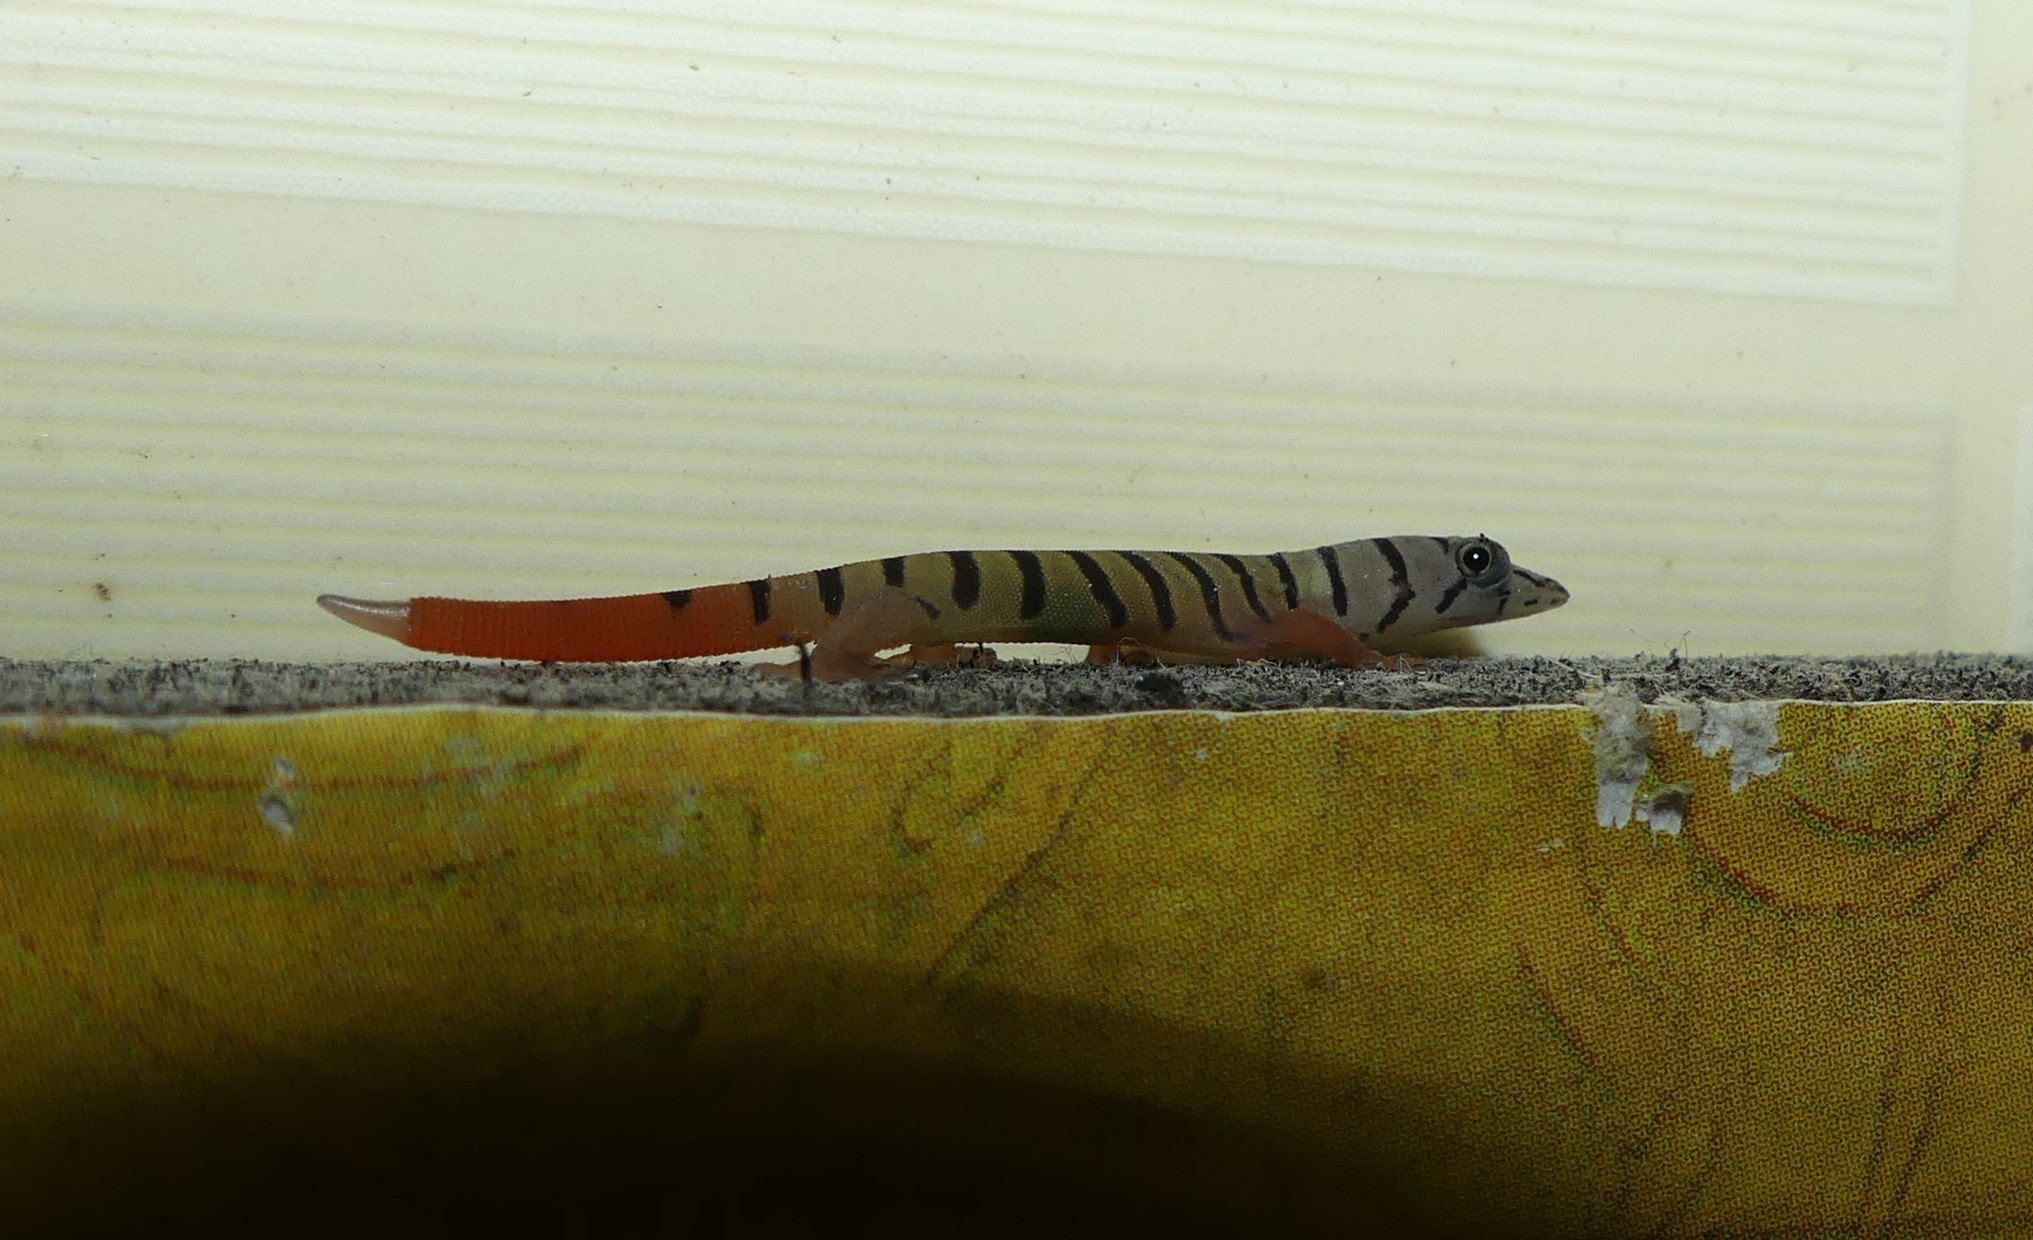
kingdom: Animalia
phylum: Chordata
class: Squamata
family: Sphaerodactylidae
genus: Sphaerodactylus
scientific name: Sphaerodactylus elegans
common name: Ashy gecko
